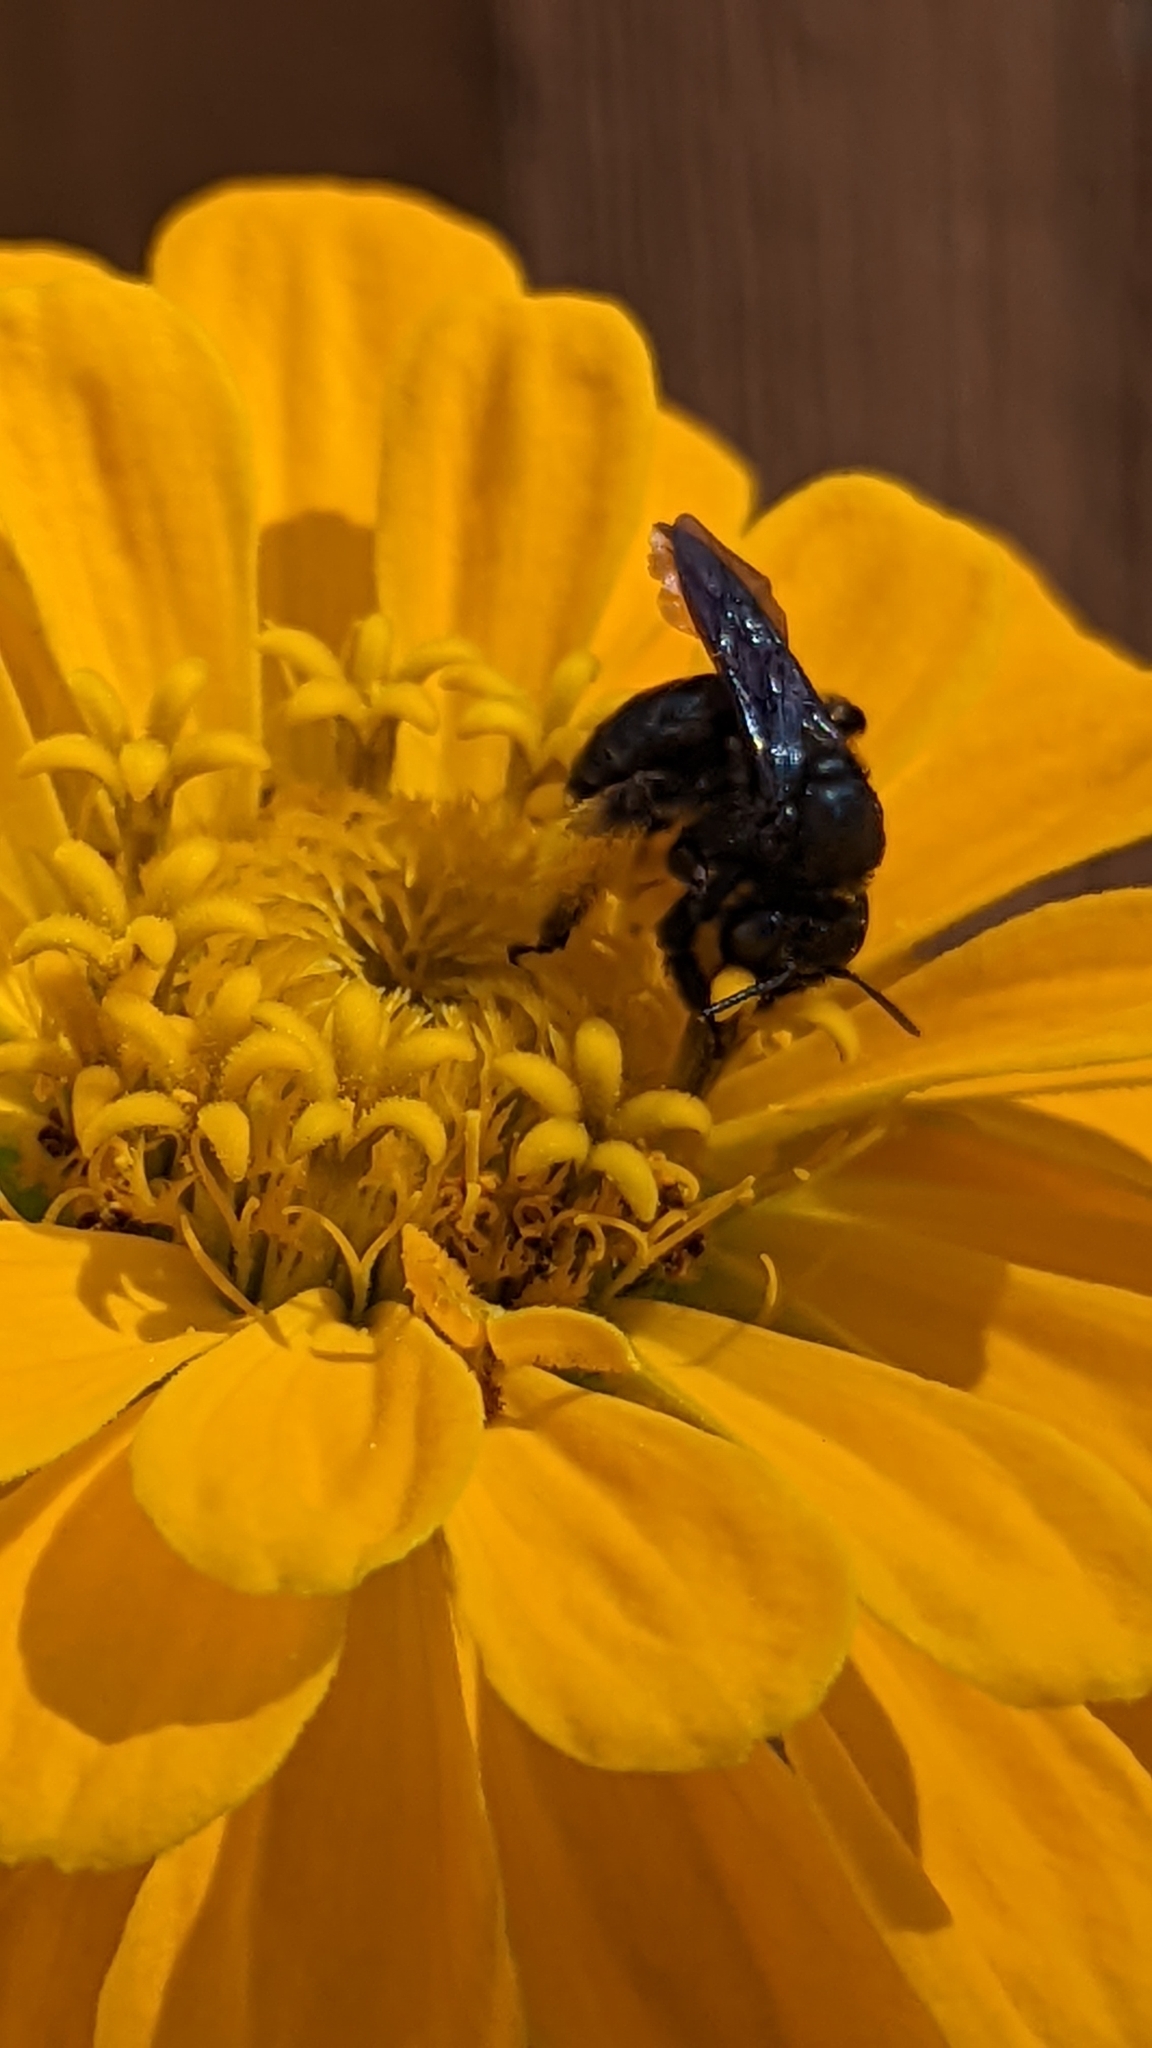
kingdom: Animalia
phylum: Arthropoda
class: Insecta
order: Hymenoptera
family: Apidae
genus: Melissodes
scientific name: Melissodes bimaculatus
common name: Two-spotted long-horned bee
